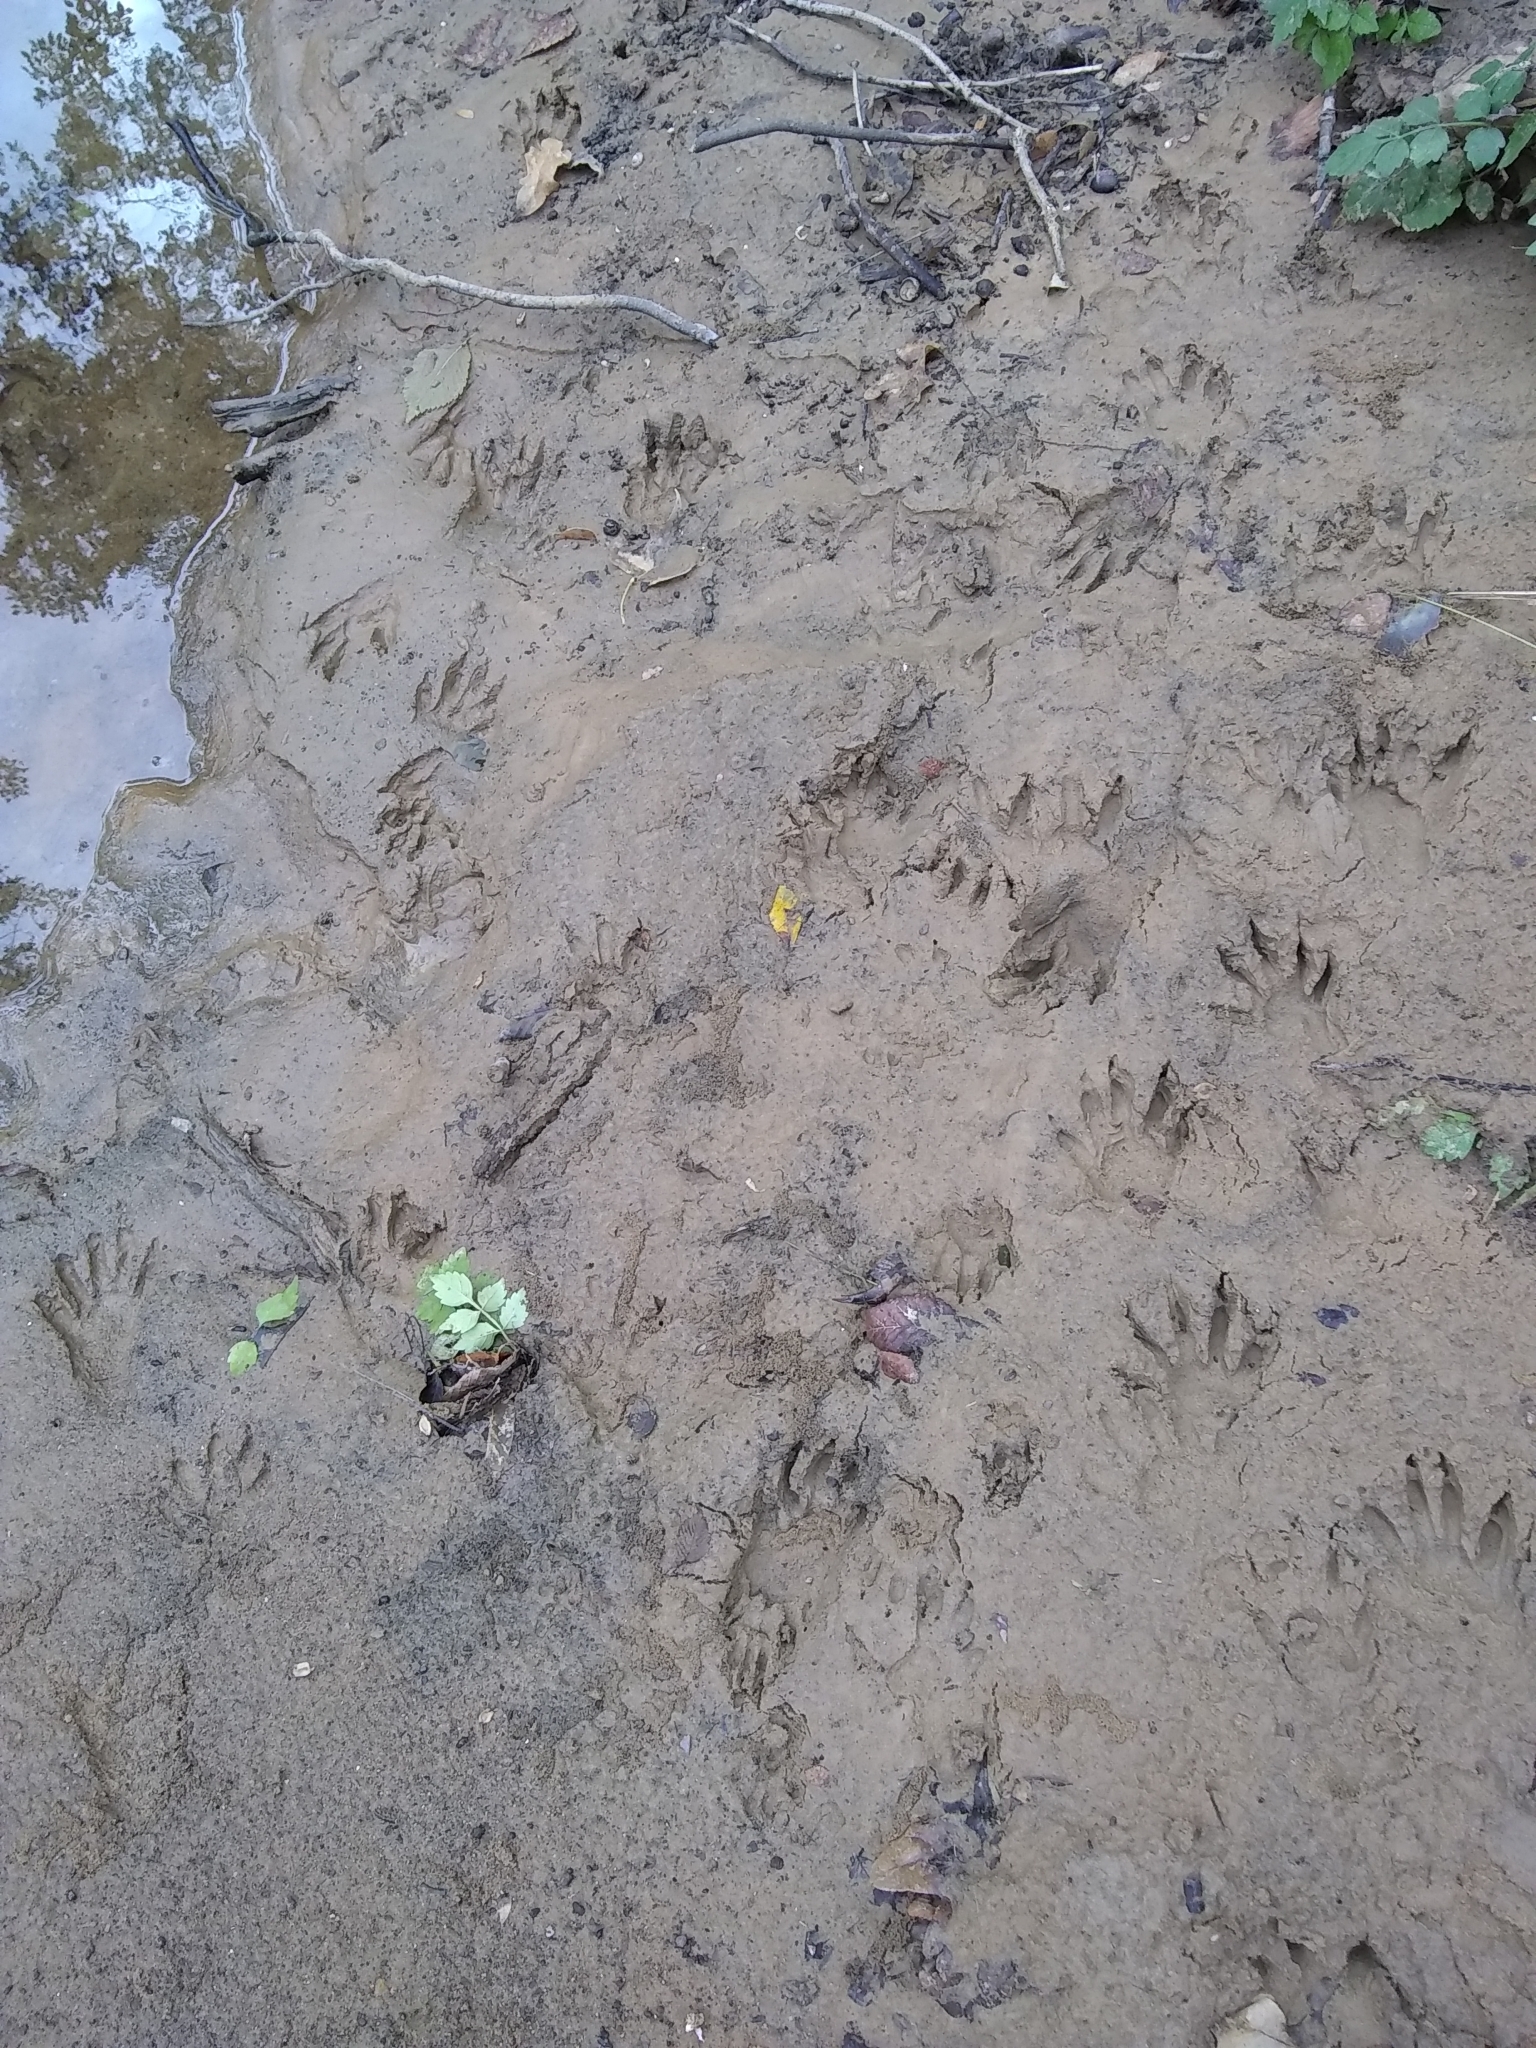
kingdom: Animalia
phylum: Chordata
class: Mammalia
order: Carnivora
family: Procyonidae
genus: Procyon
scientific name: Procyon lotor
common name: Raccoon
